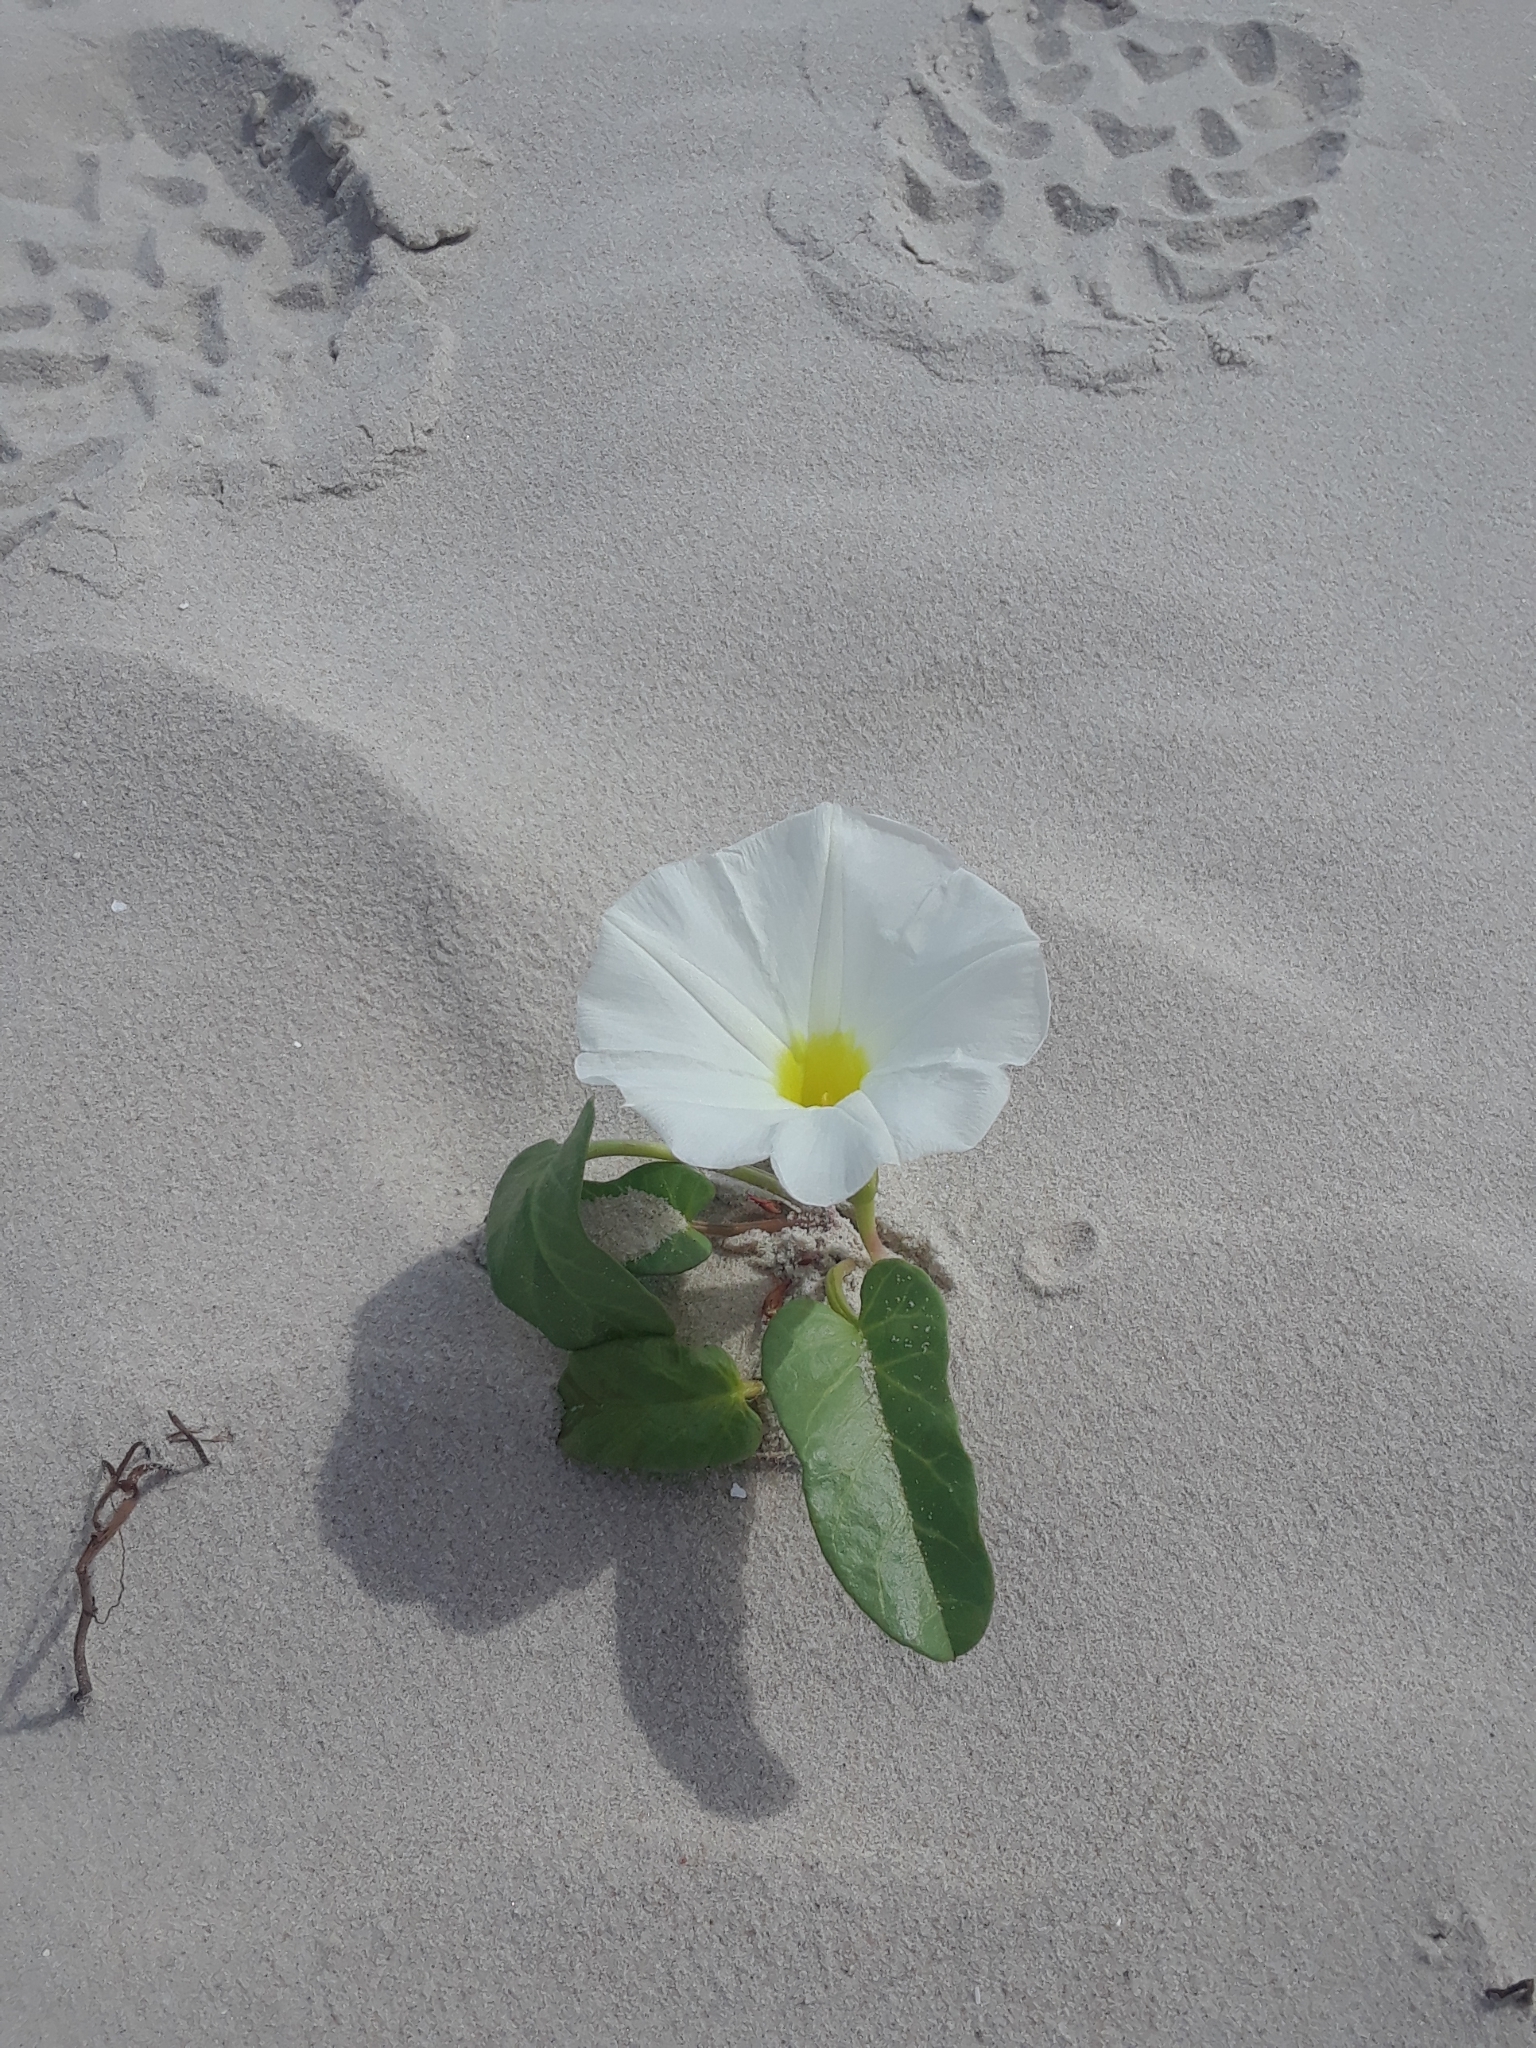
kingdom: Plantae
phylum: Tracheophyta
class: Magnoliopsida
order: Solanales
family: Convolvulaceae
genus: Ipomoea
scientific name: Ipomoea imperati
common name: Fiddle-leaf morning-glory
